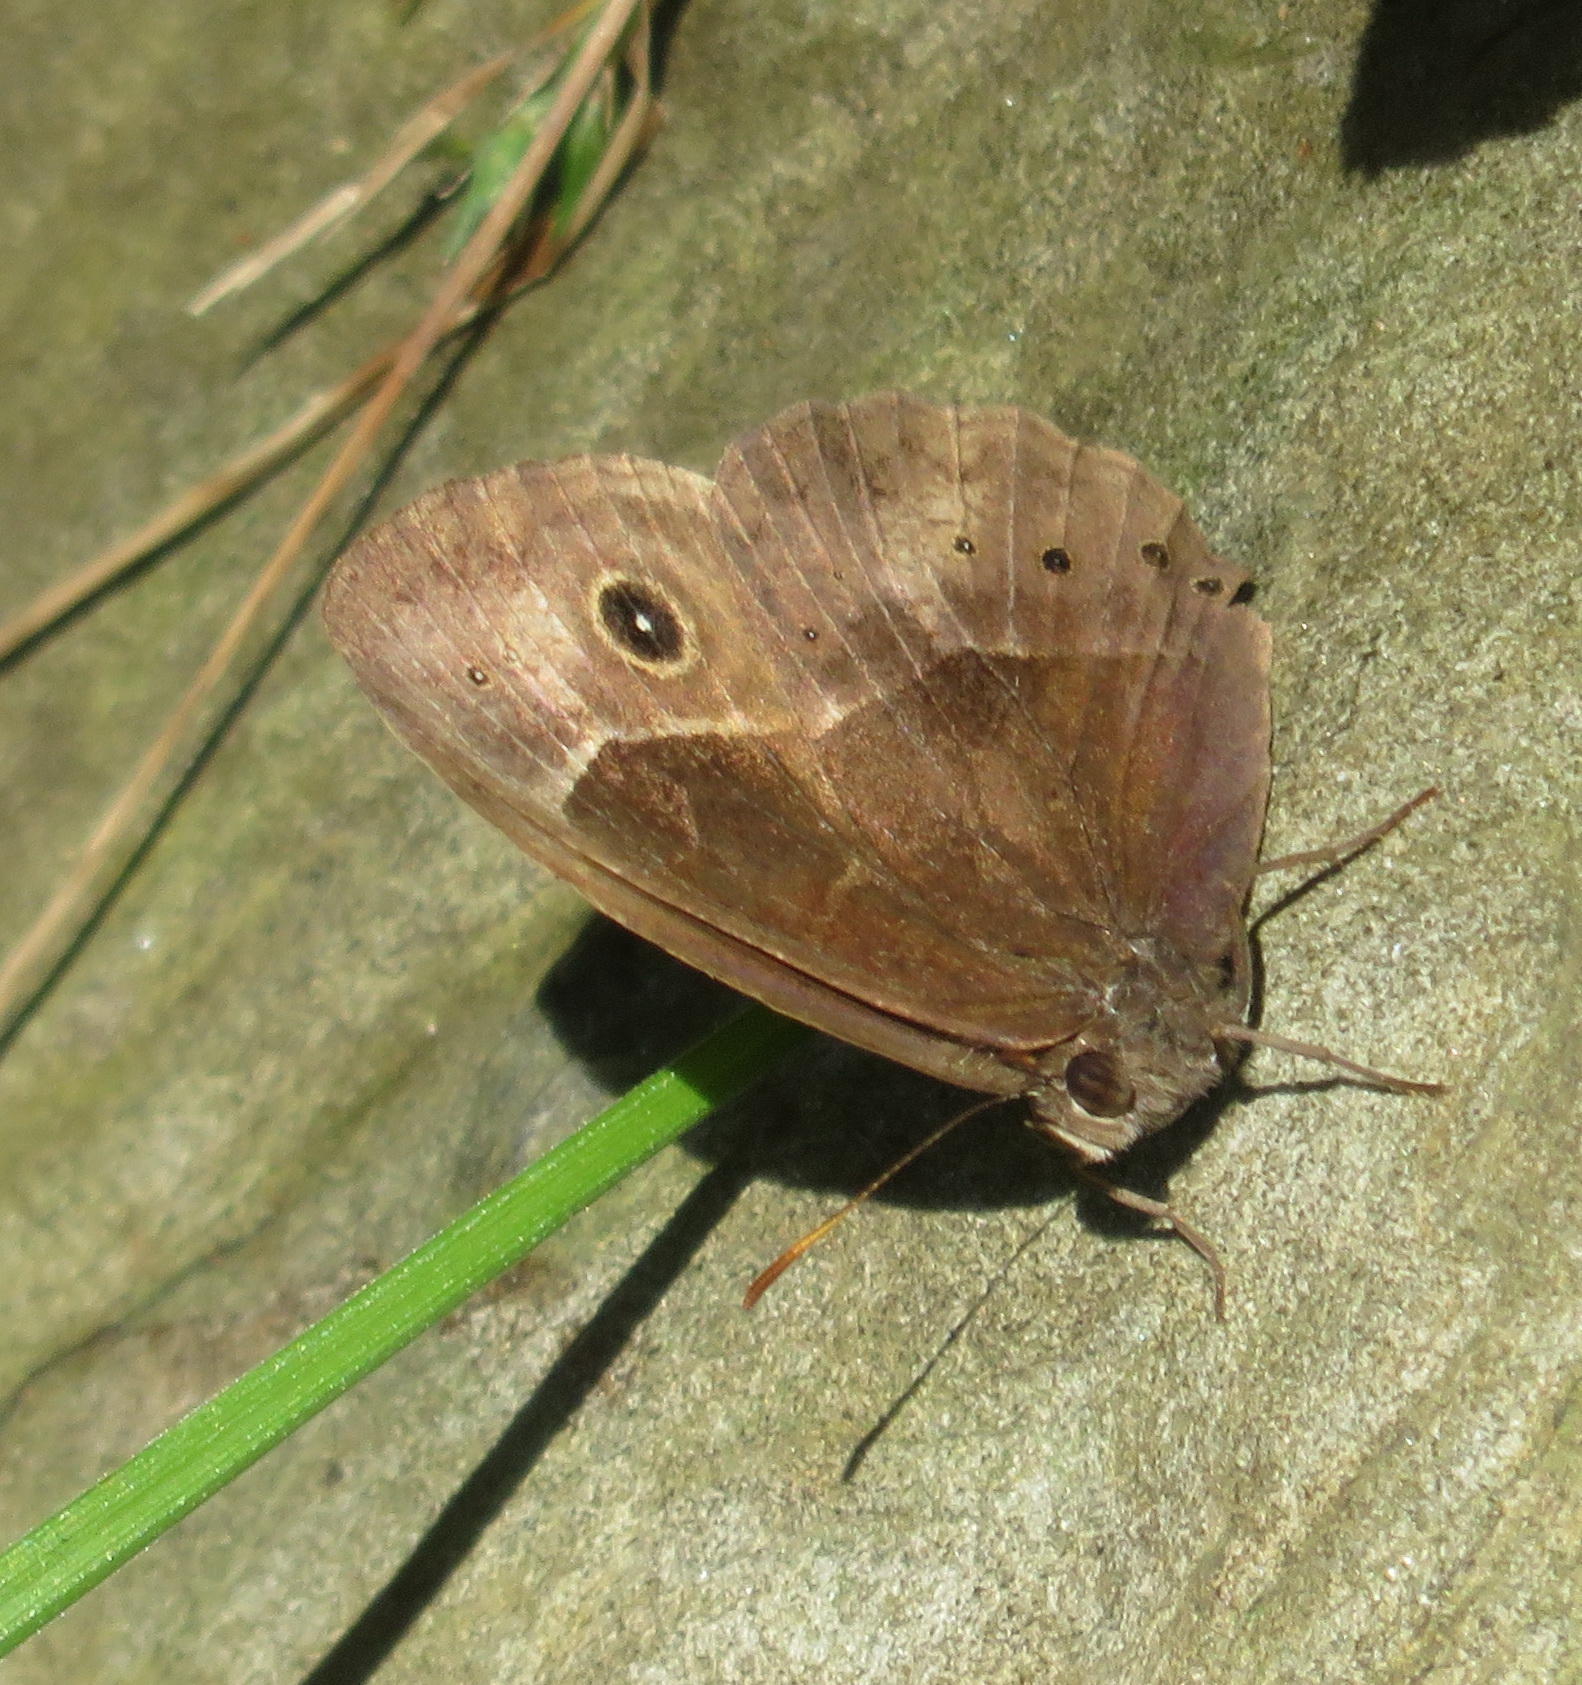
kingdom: Animalia
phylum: Arthropoda
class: Insecta
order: Lepidoptera
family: Nymphalidae
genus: Mycalesis
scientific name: Mycalesis rhacotis
